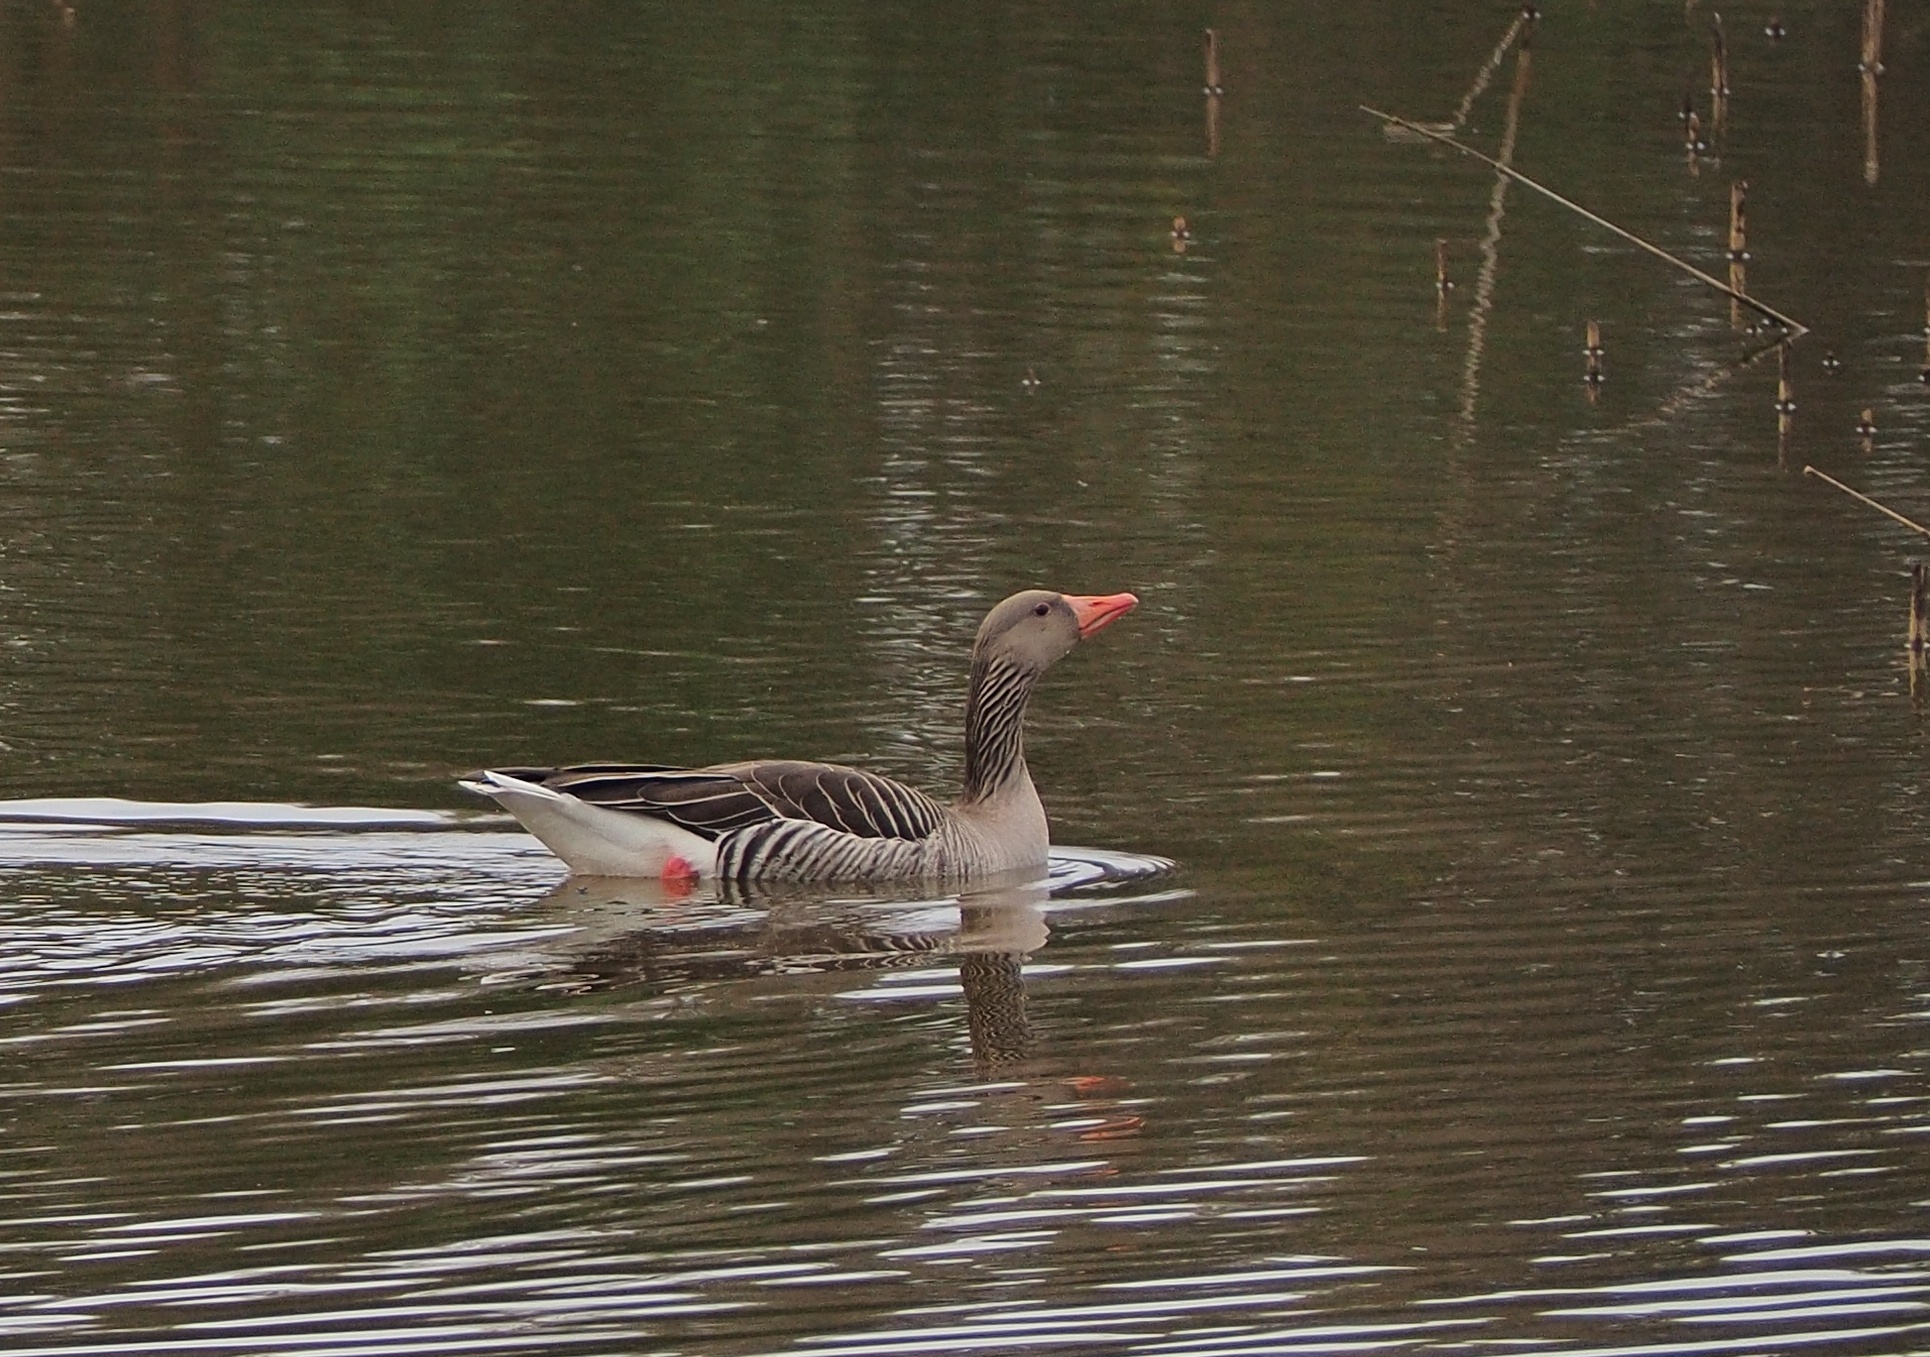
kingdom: Animalia
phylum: Chordata
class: Aves
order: Anseriformes
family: Anatidae
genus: Anser
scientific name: Anser anser
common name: Greylag goose
